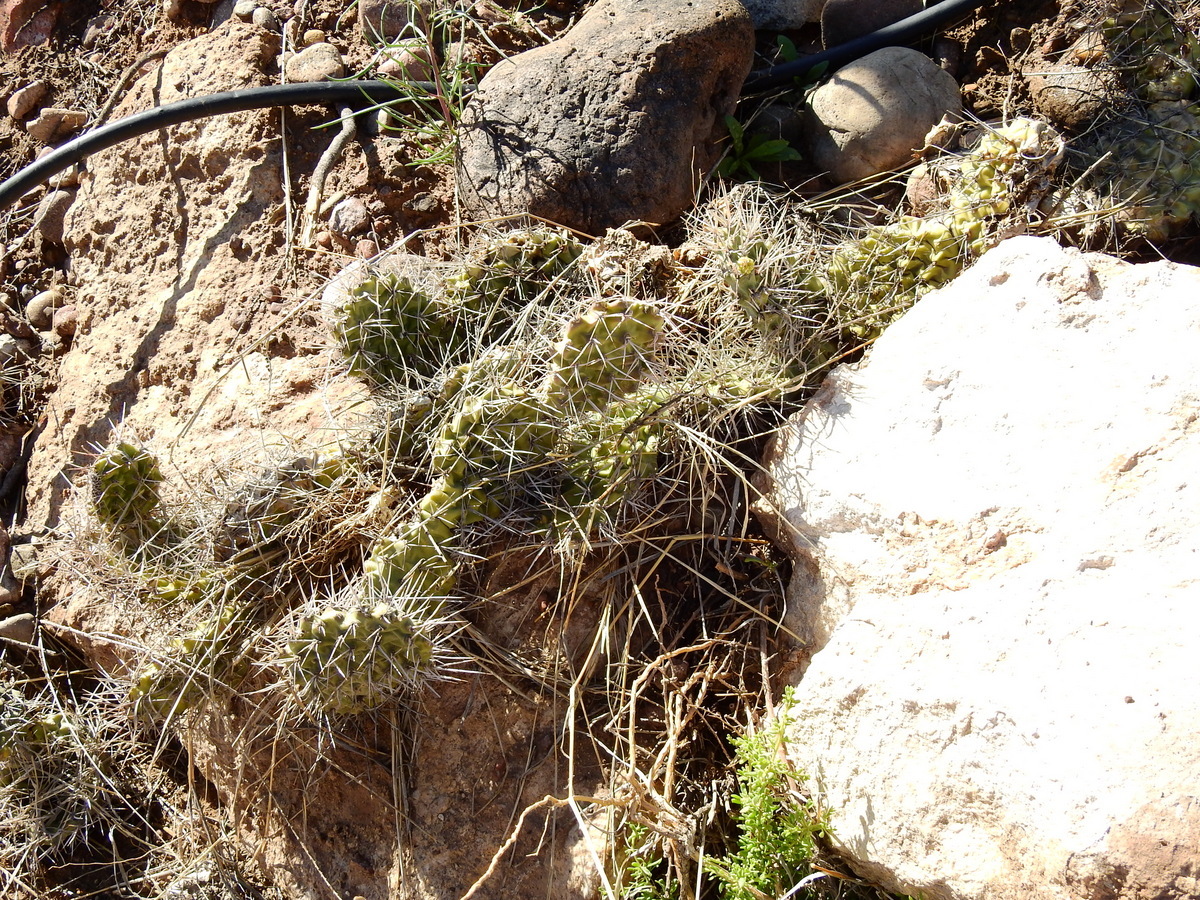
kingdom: Plantae
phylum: Tracheophyta
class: Magnoliopsida
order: Caryophyllales
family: Cactaceae
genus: Opuntia
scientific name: Opuntia sulphurea
